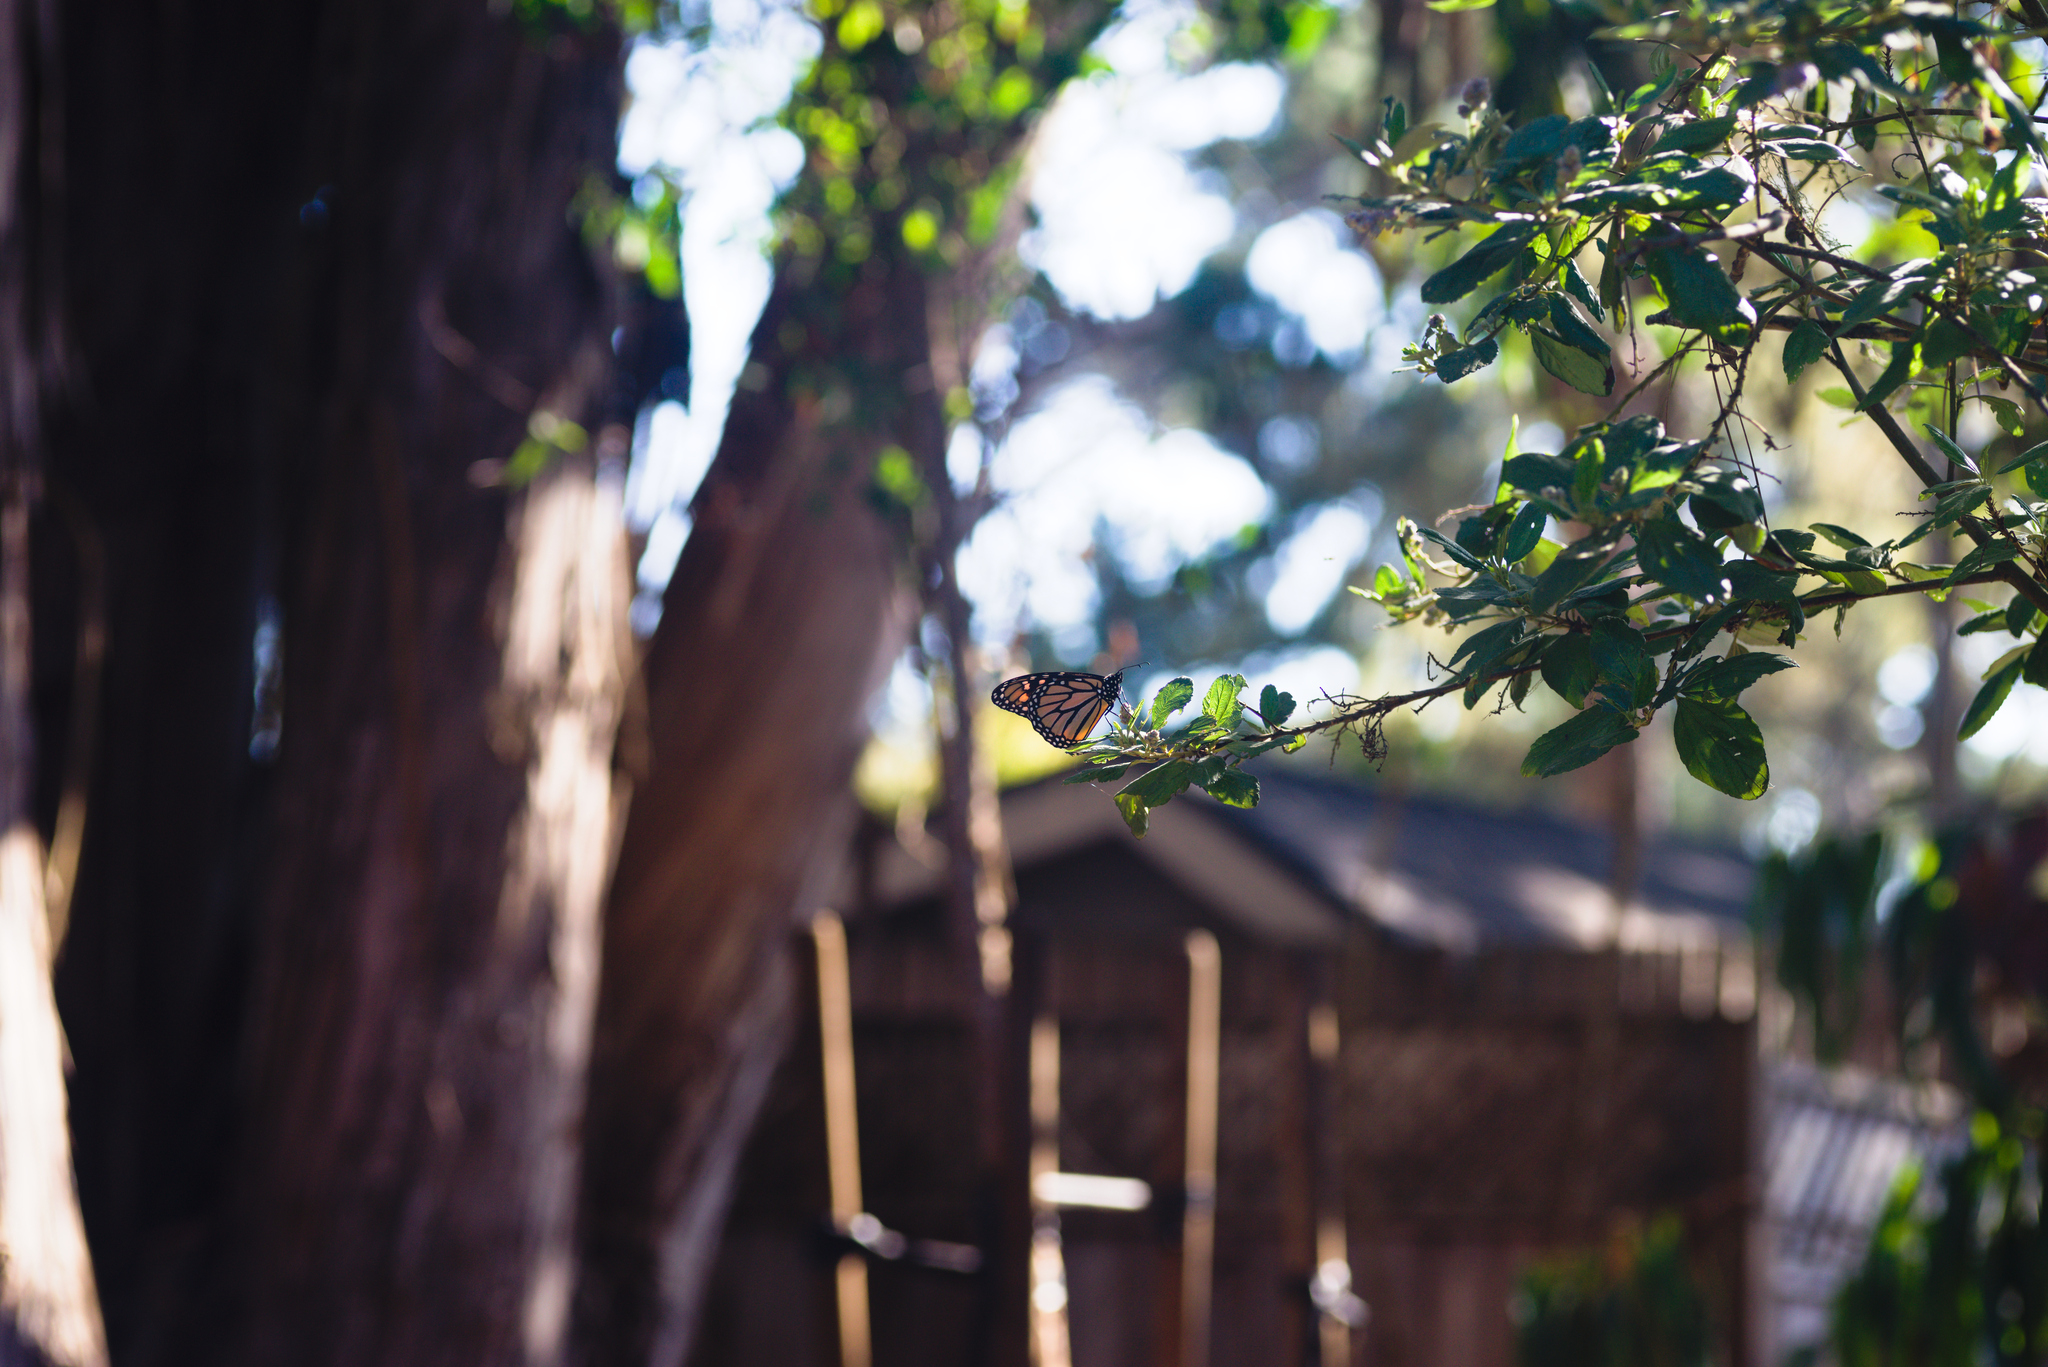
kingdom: Animalia
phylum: Arthropoda
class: Insecta
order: Lepidoptera
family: Nymphalidae
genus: Danaus
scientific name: Danaus plexippus
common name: Monarch
